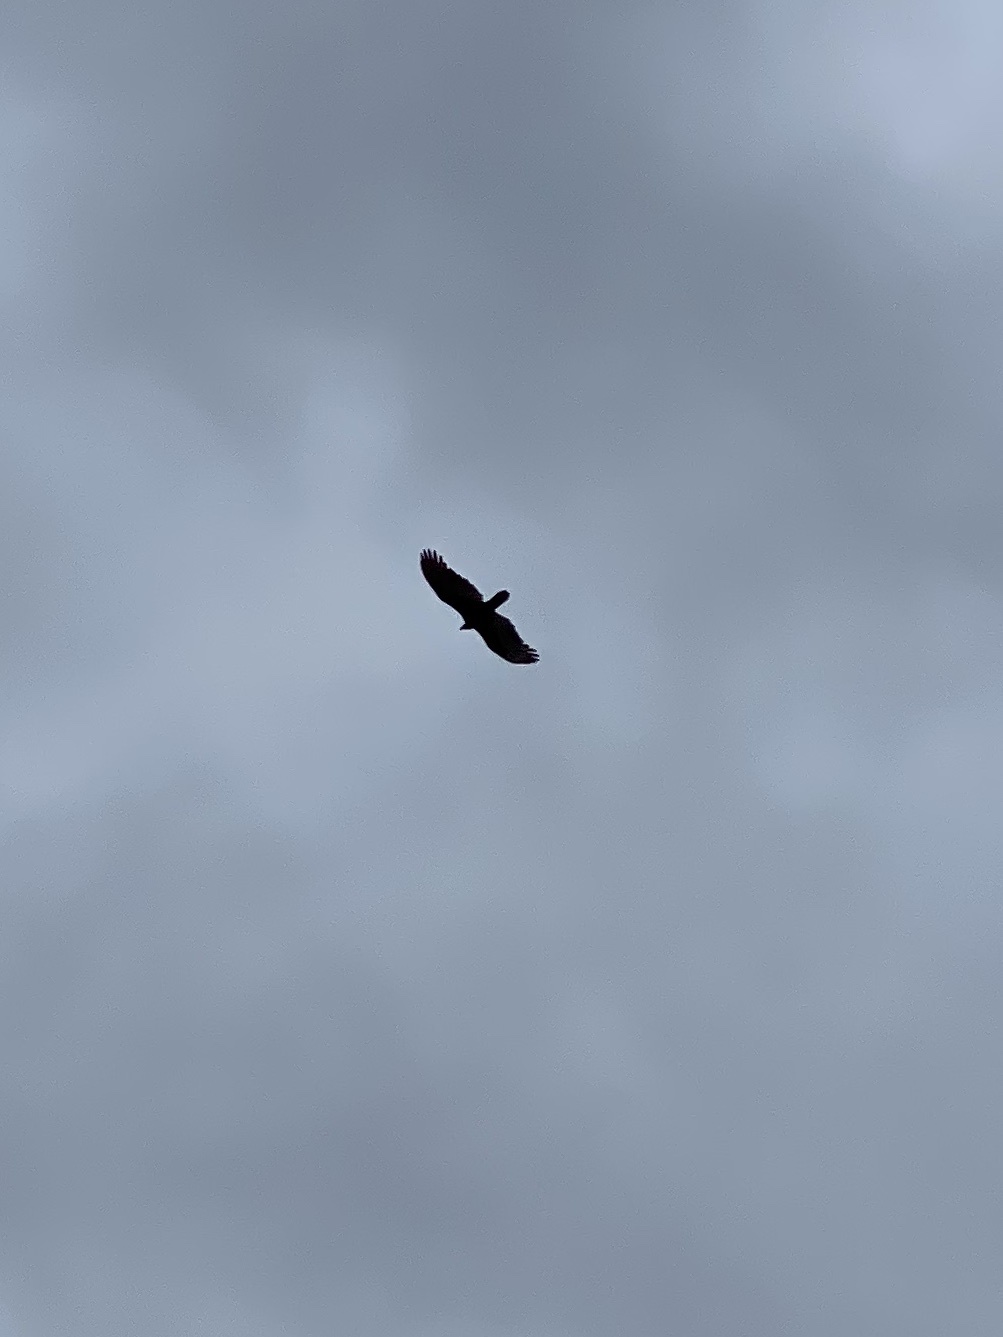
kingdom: Animalia
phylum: Chordata
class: Aves
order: Accipitriformes
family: Cathartidae
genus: Cathartes
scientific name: Cathartes aura
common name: Turkey vulture
